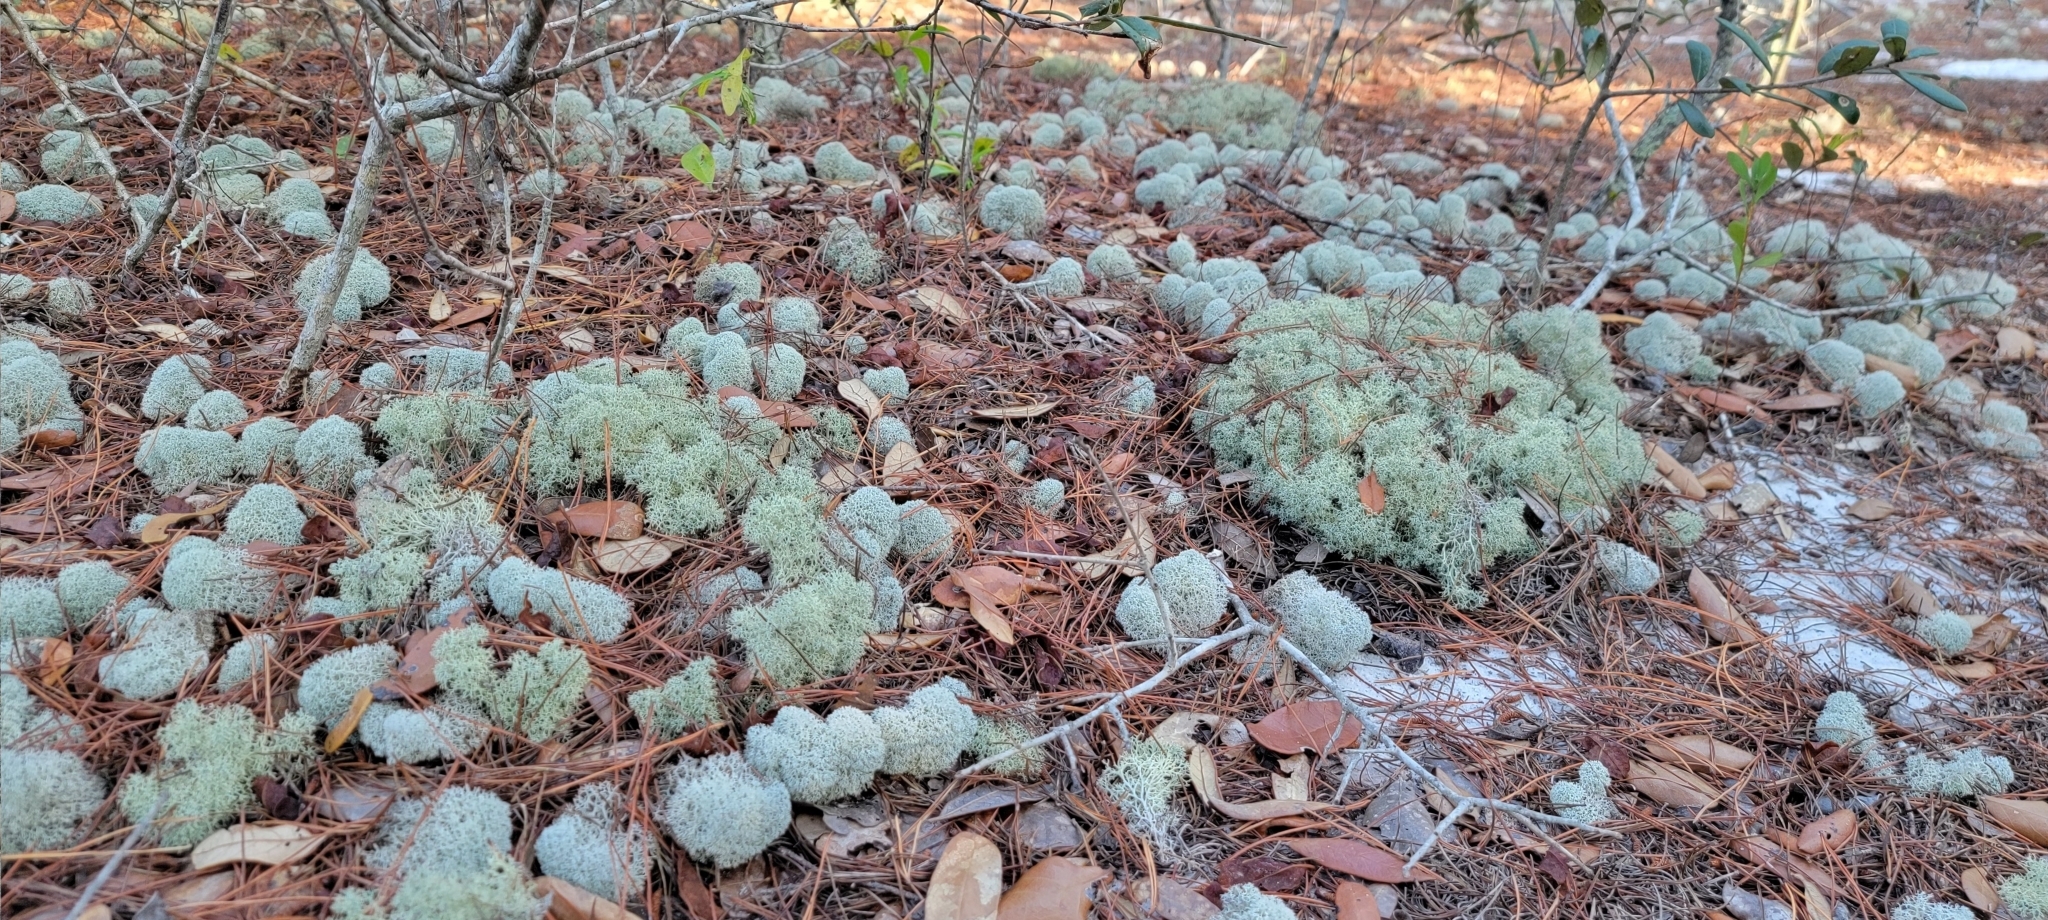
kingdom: Fungi
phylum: Ascomycota
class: Lecanoromycetes
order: Lecanorales
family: Cladoniaceae
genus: Cladonia
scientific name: Cladonia evansii
